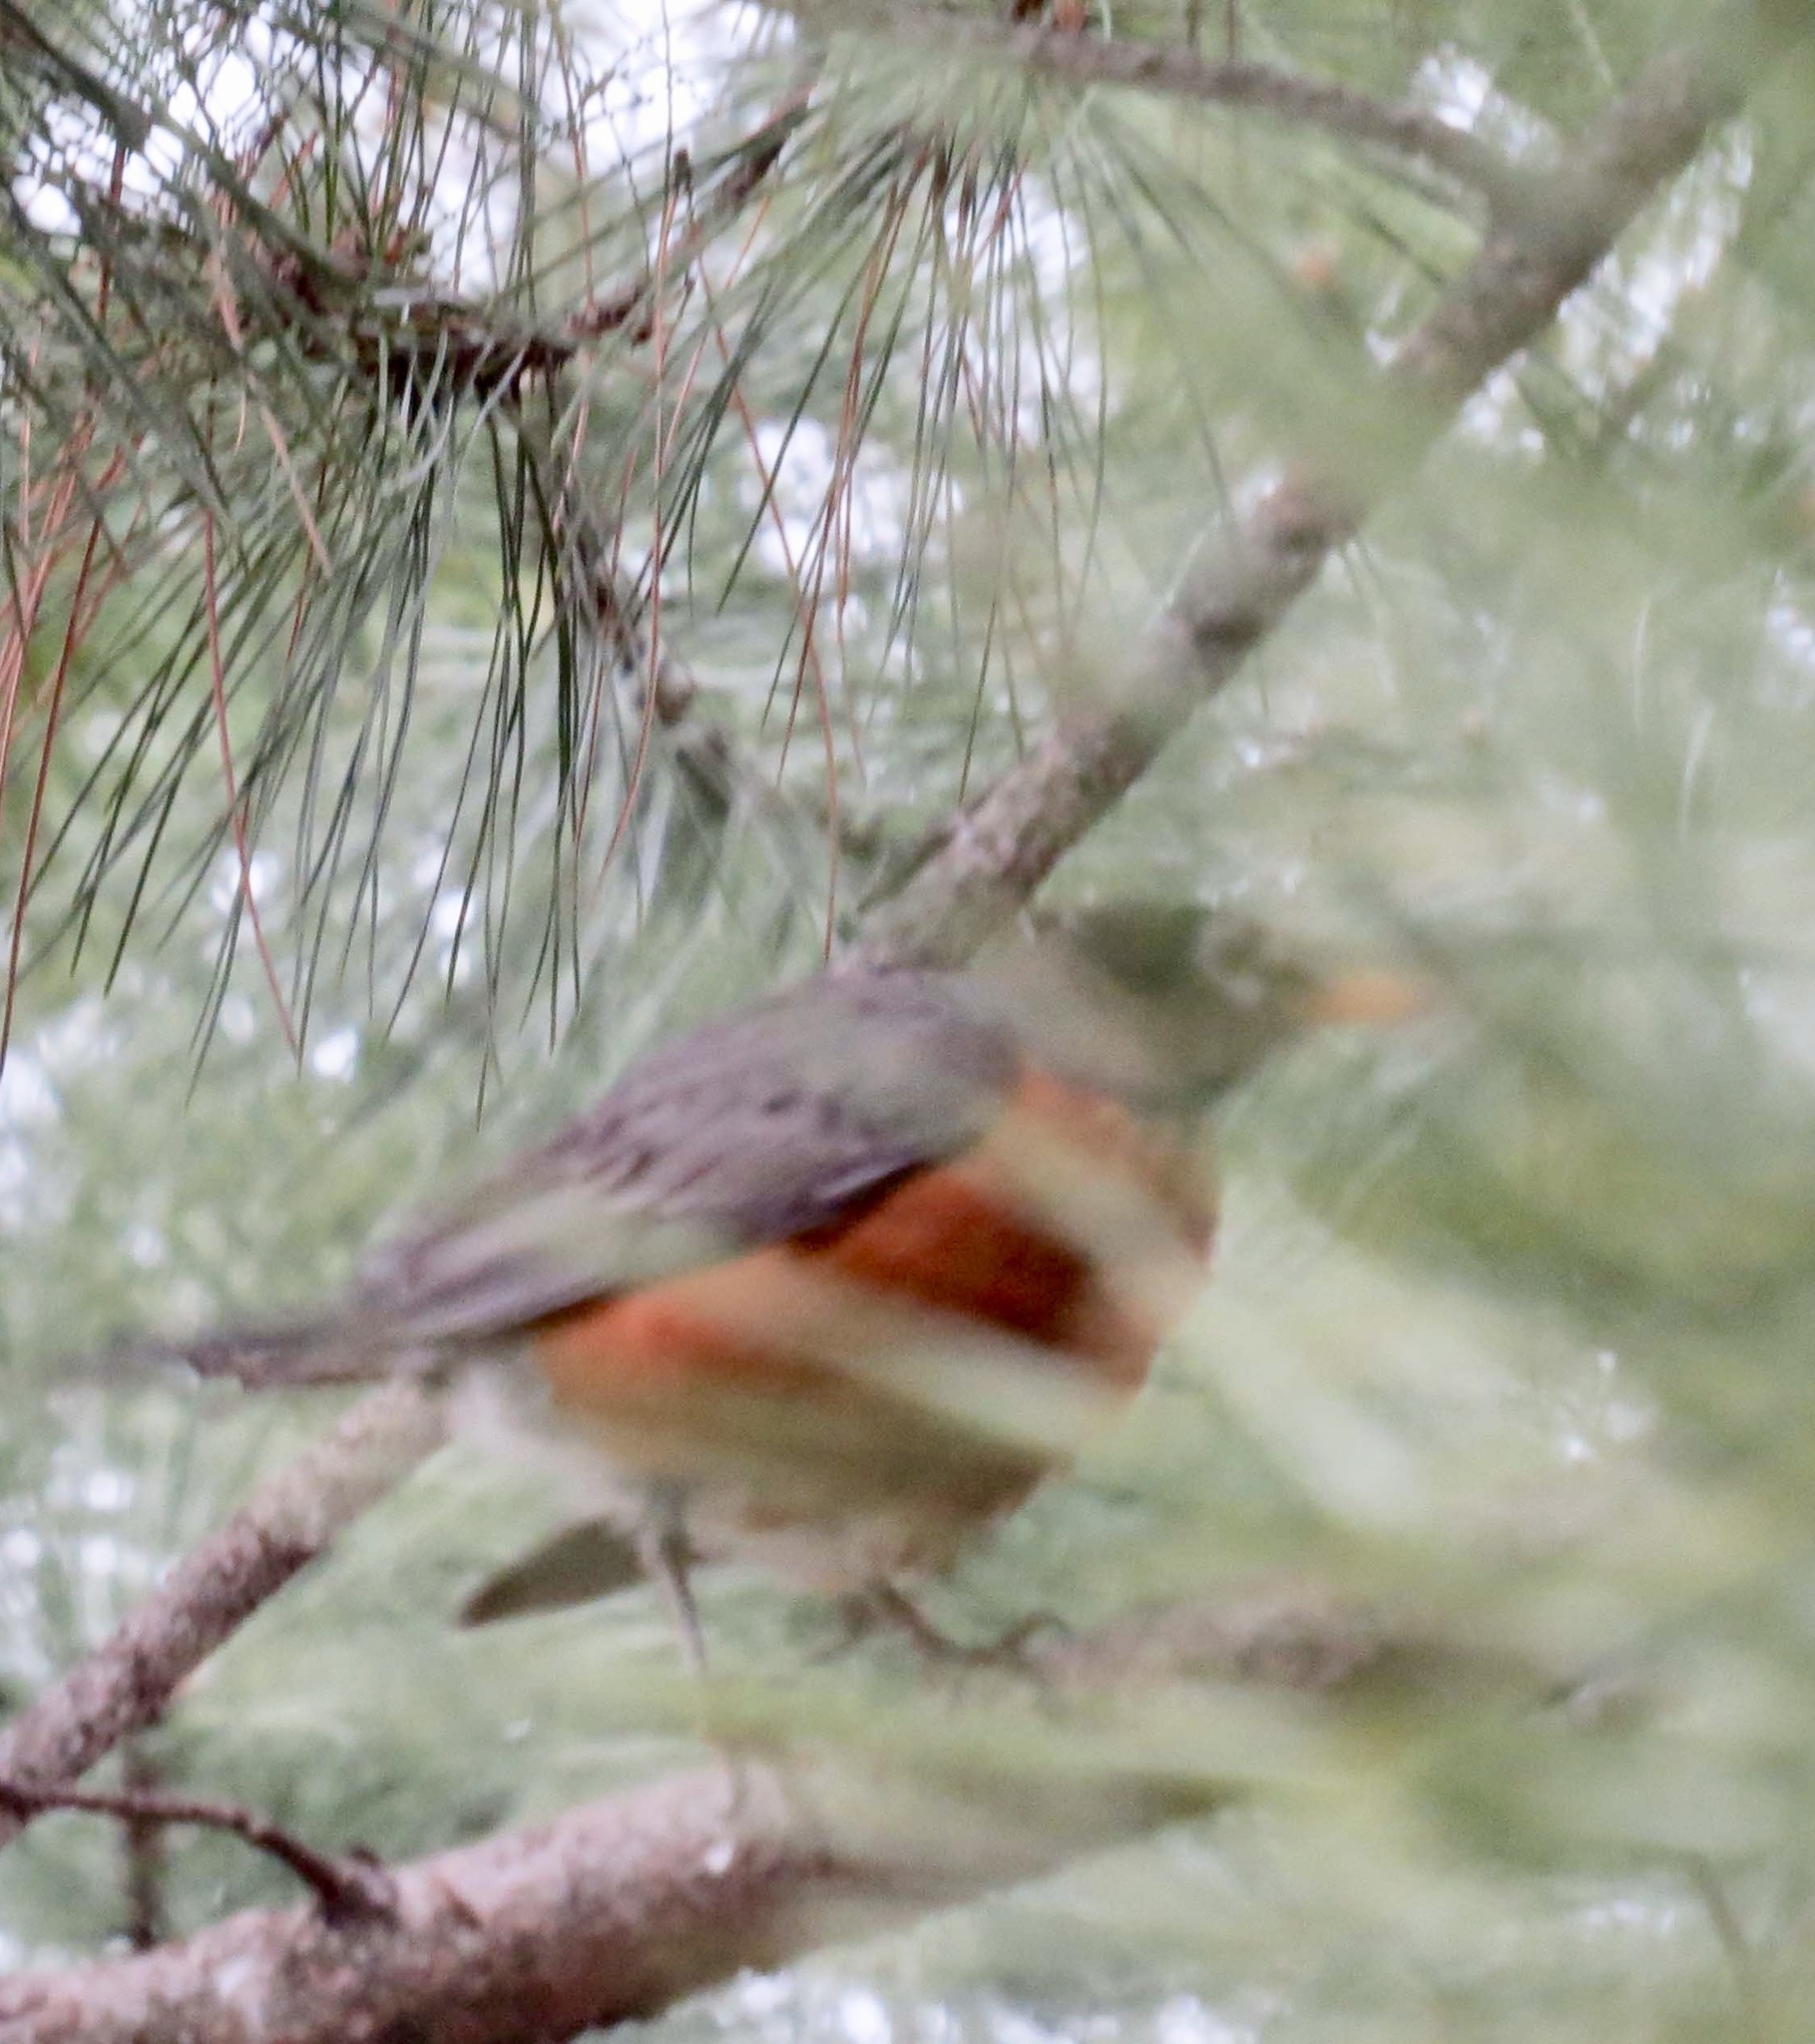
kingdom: Animalia
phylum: Chordata
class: Aves
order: Passeriformes
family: Turdidae
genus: Turdus
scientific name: Turdus migratorius
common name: American robin
